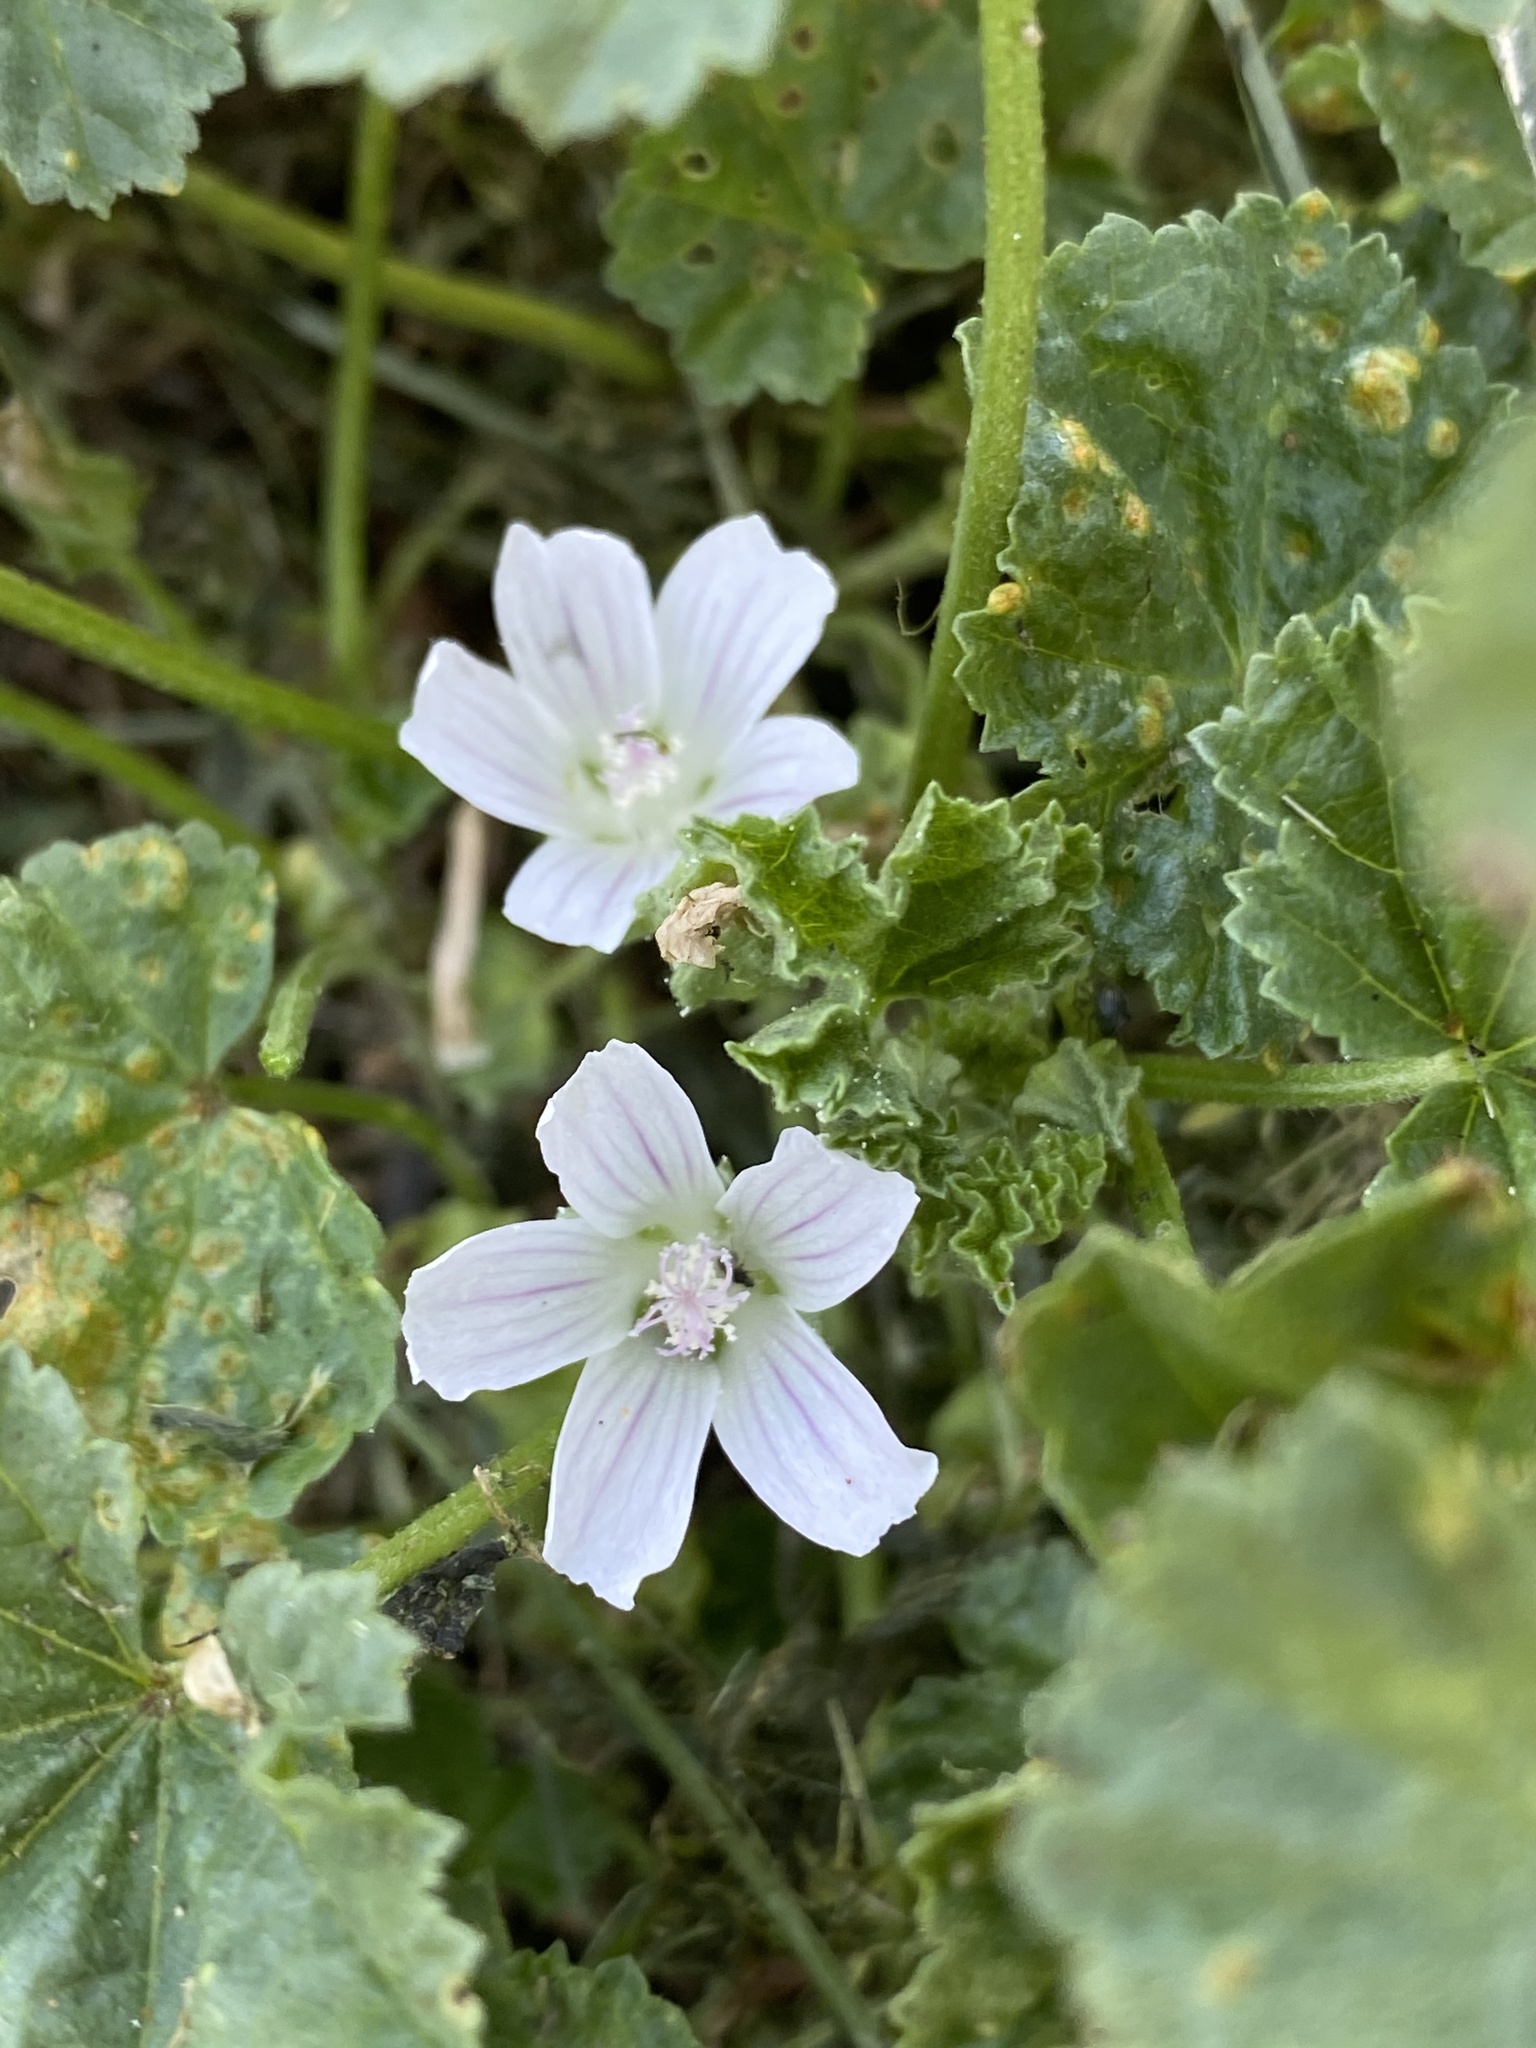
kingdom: Plantae
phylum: Tracheophyta
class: Magnoliopsida
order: Malvales
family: Malvaceae
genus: Malva
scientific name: Malva neglecta
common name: Common mallow
